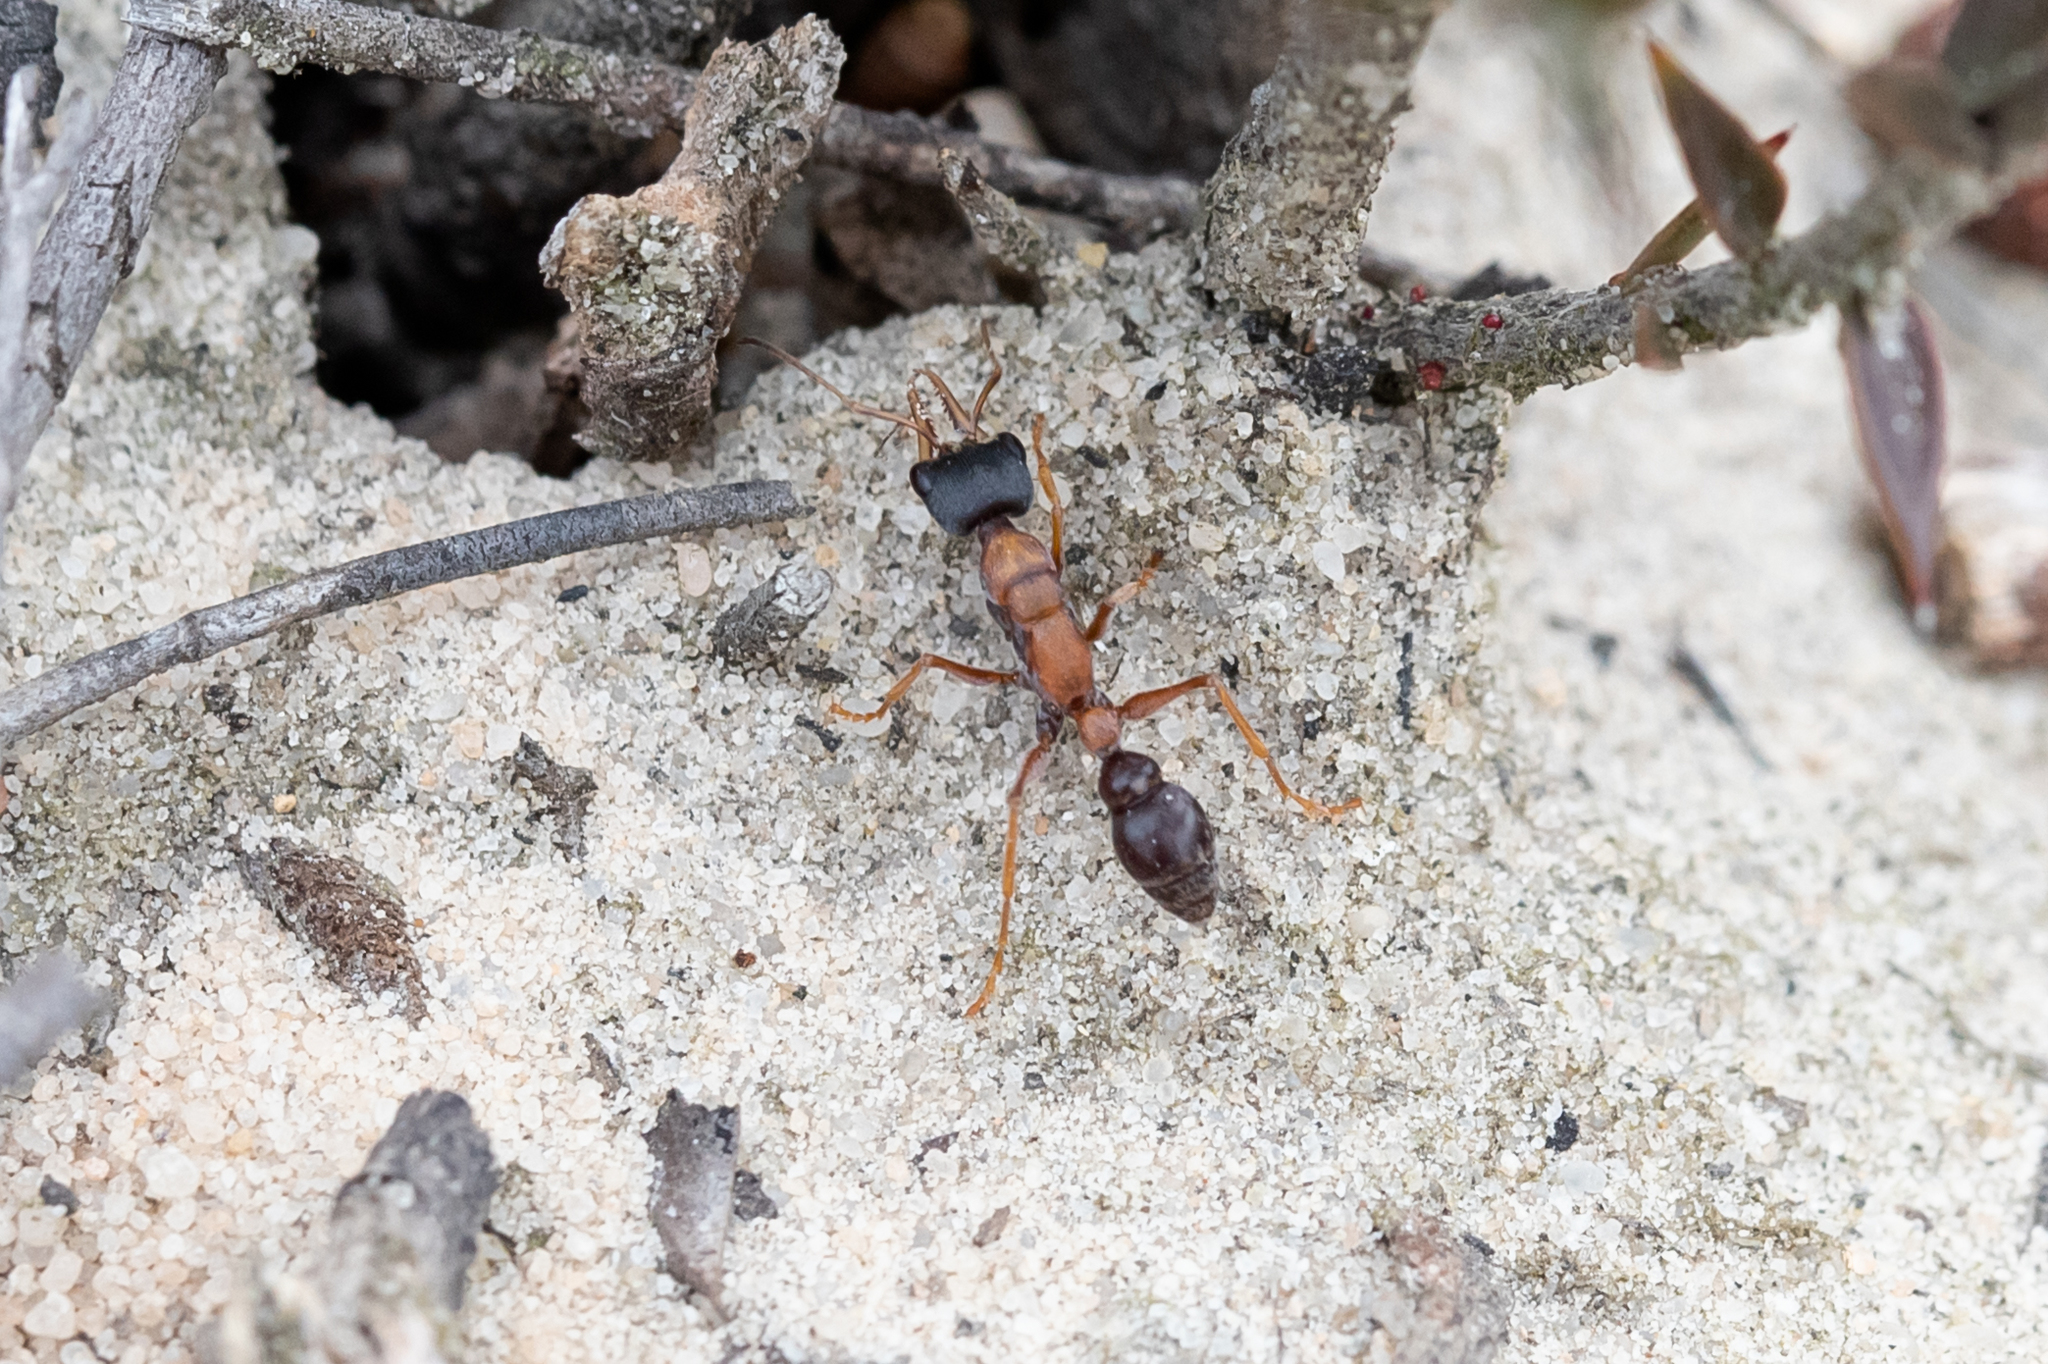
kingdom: Animalia
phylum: Arthropoda
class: Insecta
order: Hymenoptera
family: Formicidae
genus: Myrmecia
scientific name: Myrmecia elegans
